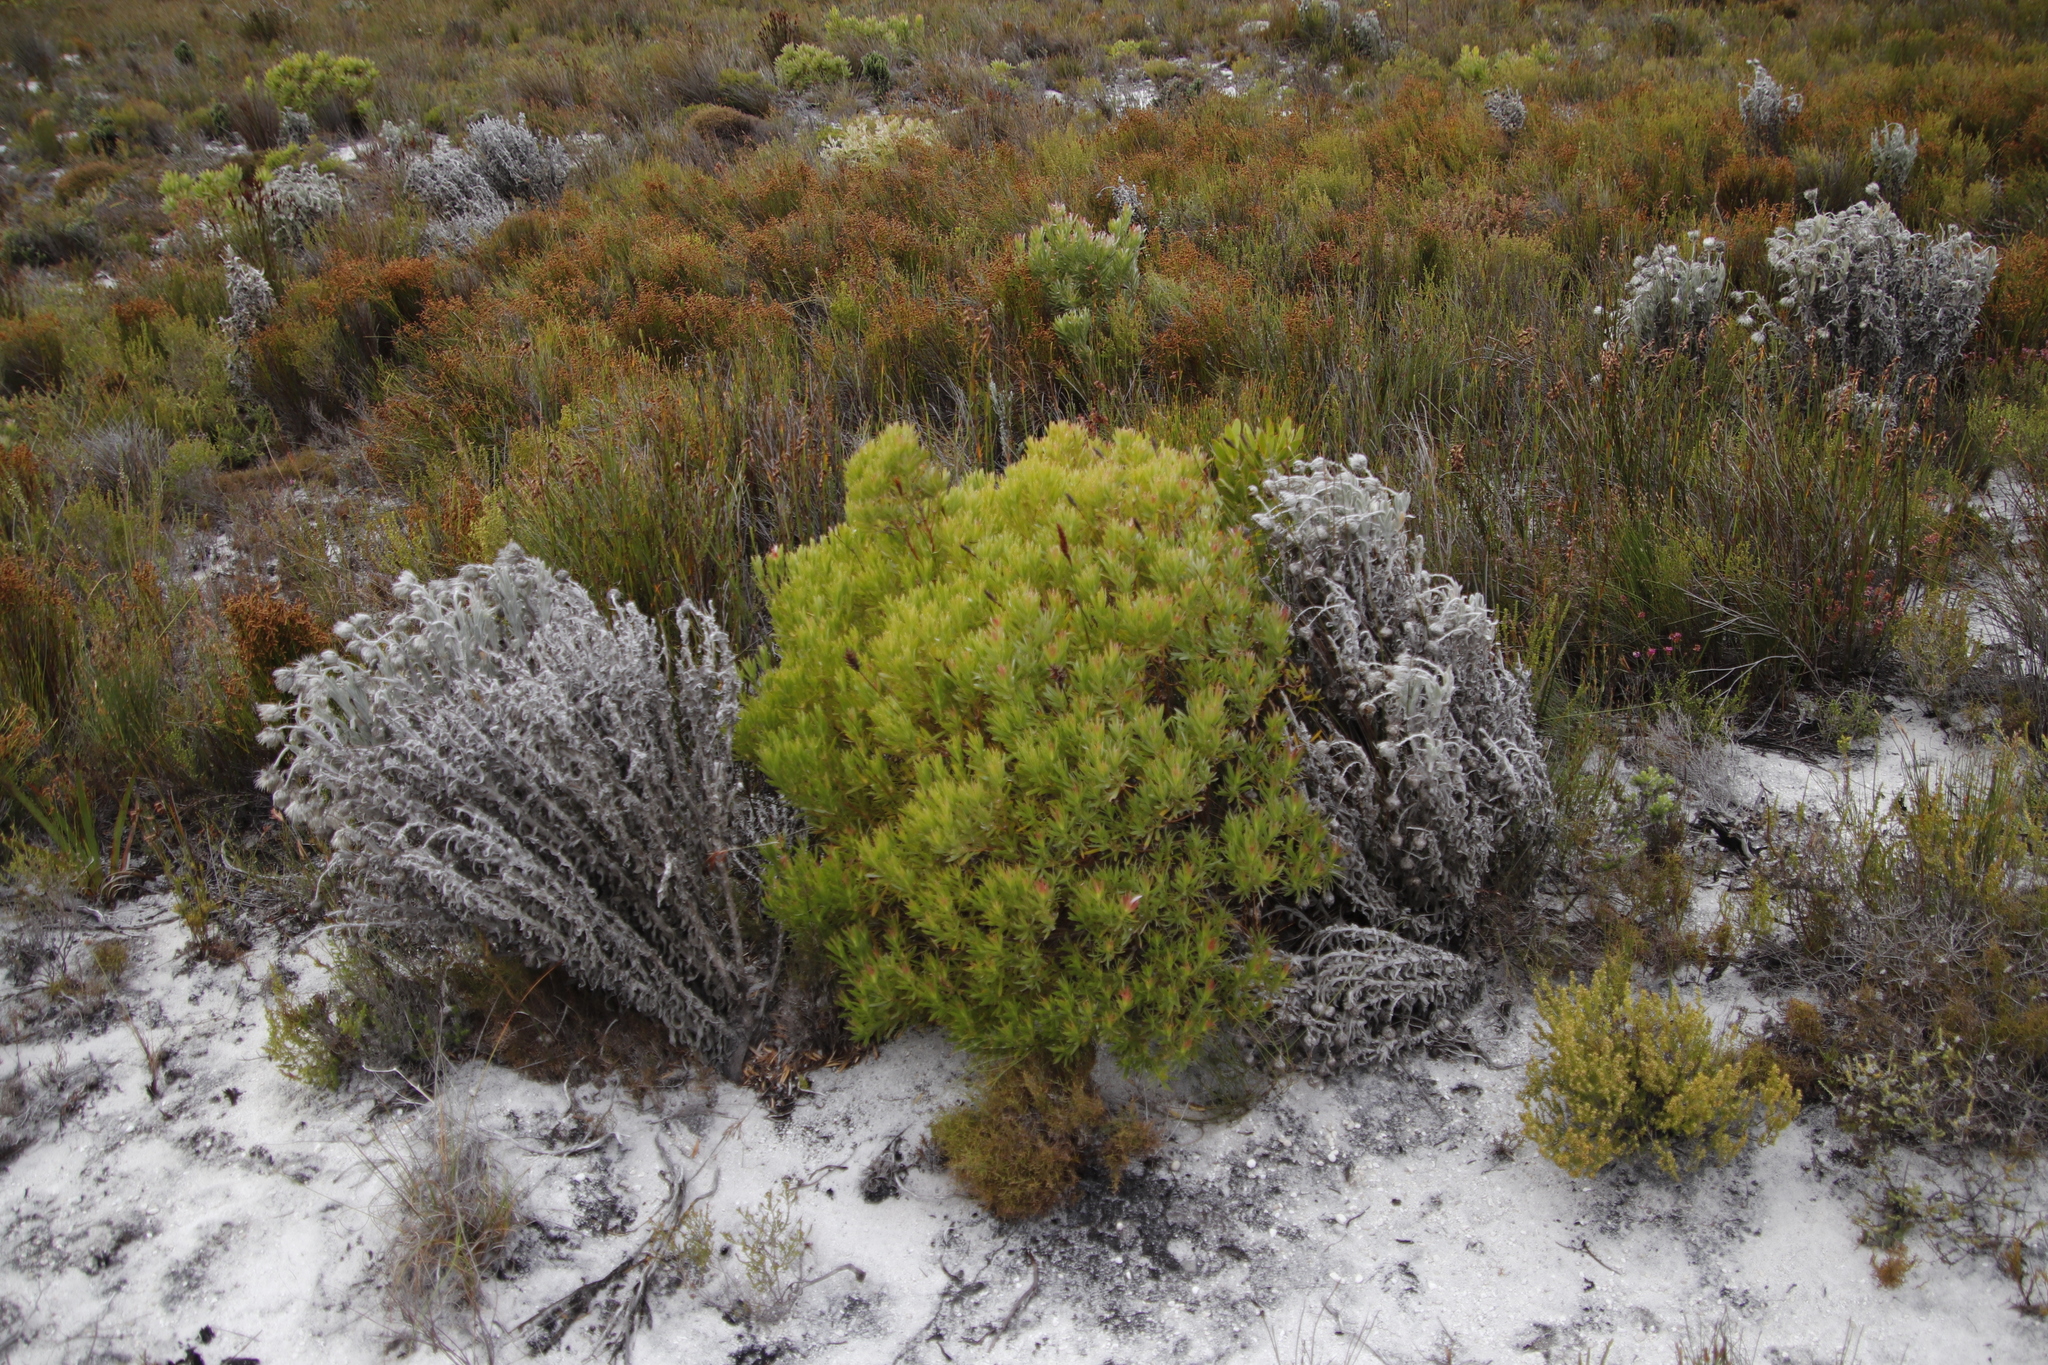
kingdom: Plantae
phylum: Tracheophyta
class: Magnoliopsida
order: Proteales
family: Proteaceae
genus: Leucadendron
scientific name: Leucadendron xanthoconus
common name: Sickle-leaf conebush
